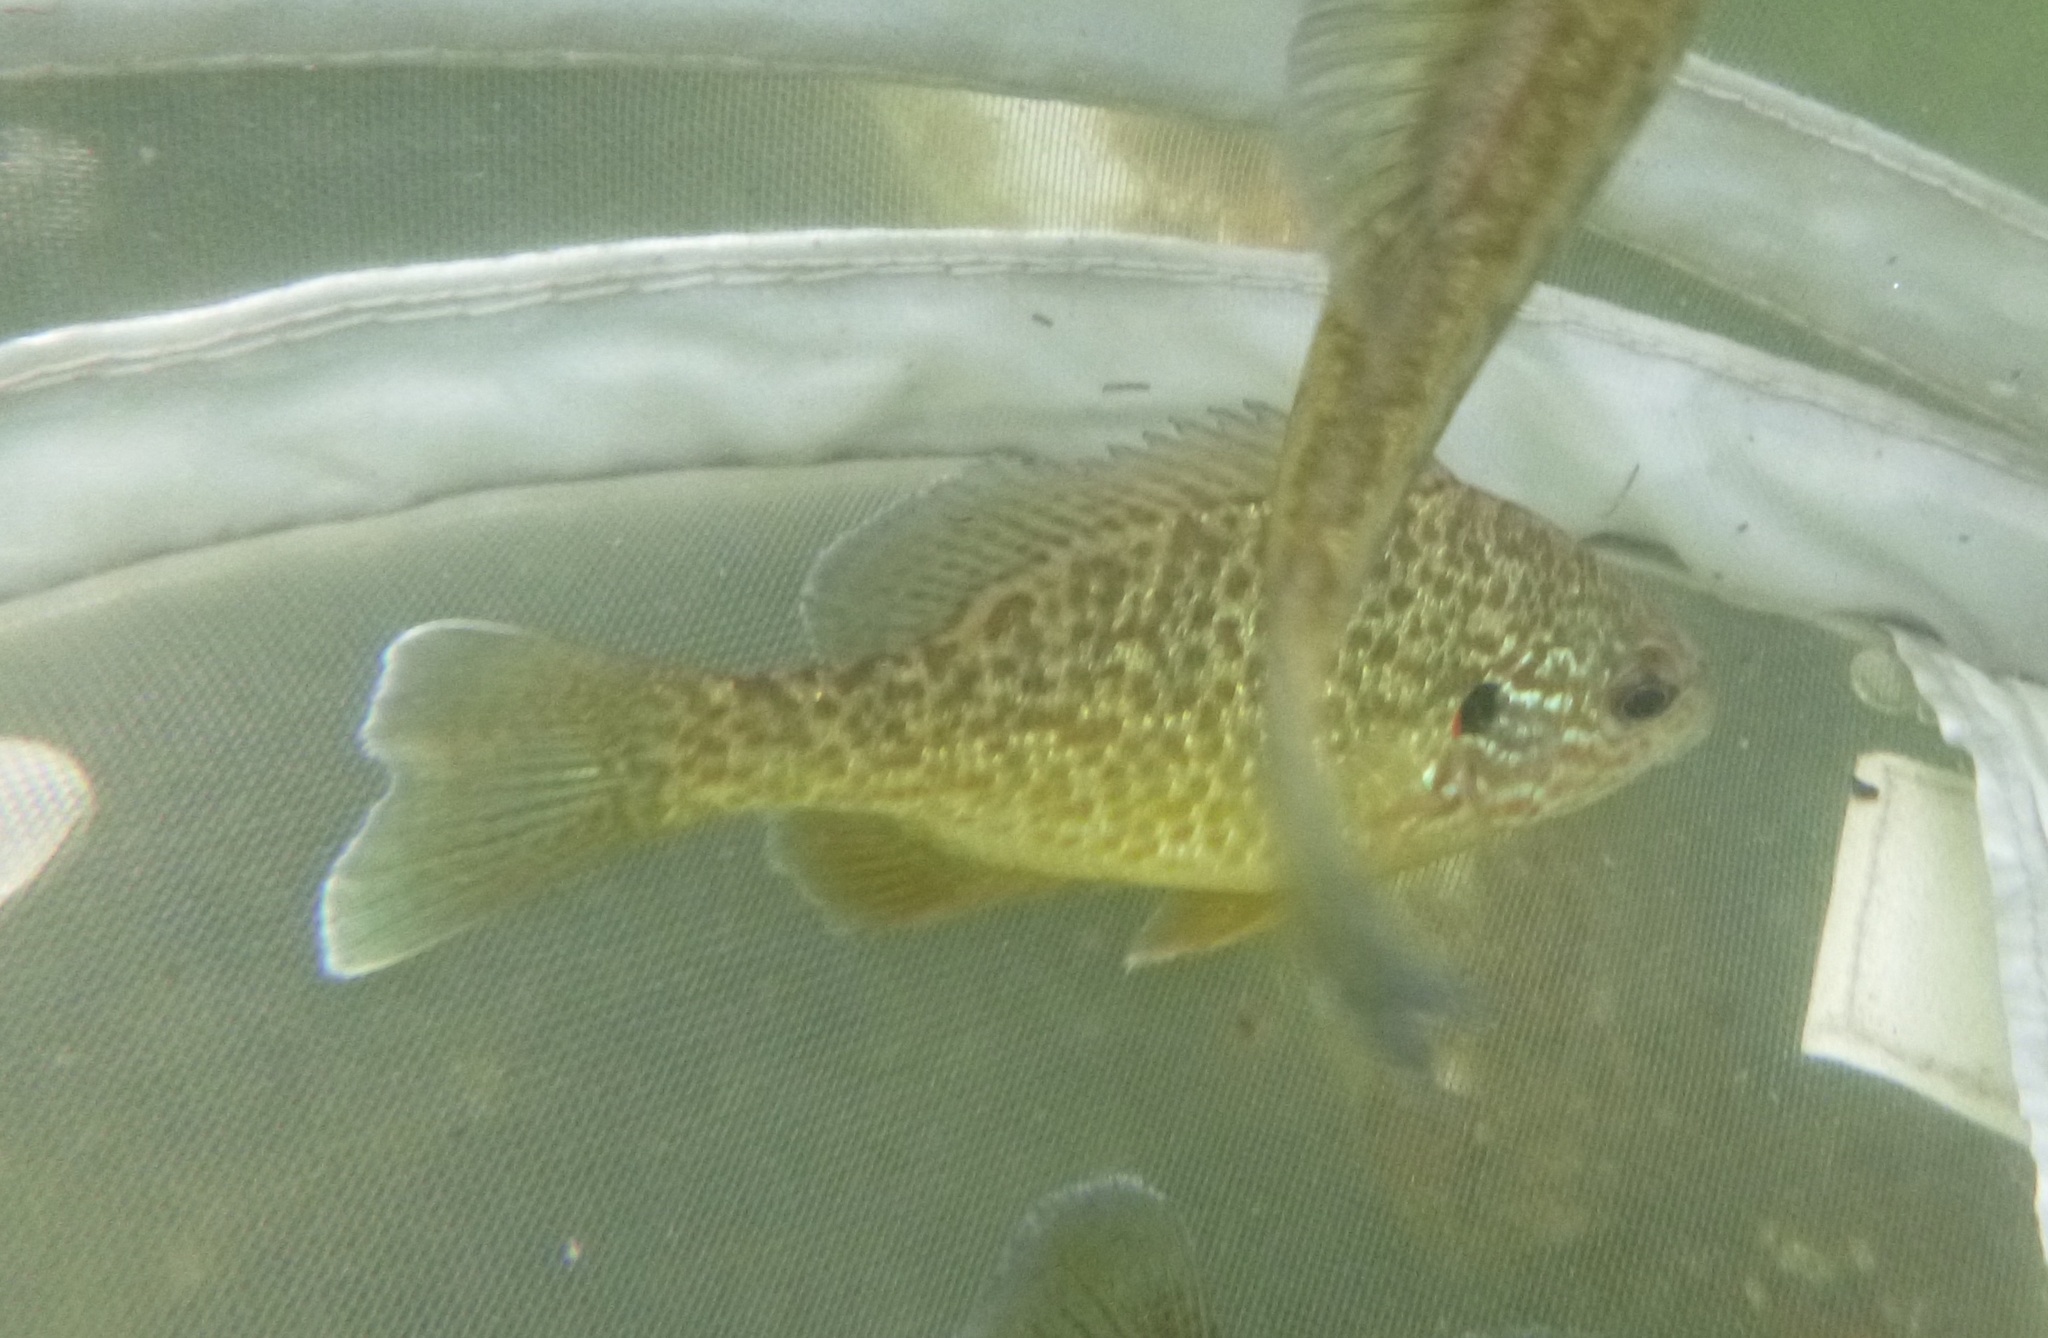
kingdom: Animalia
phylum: Chordata
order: Perciformes
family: Centrarchidae
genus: Lepomis
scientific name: Lepomis gibbosus
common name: Pumpkinseed
